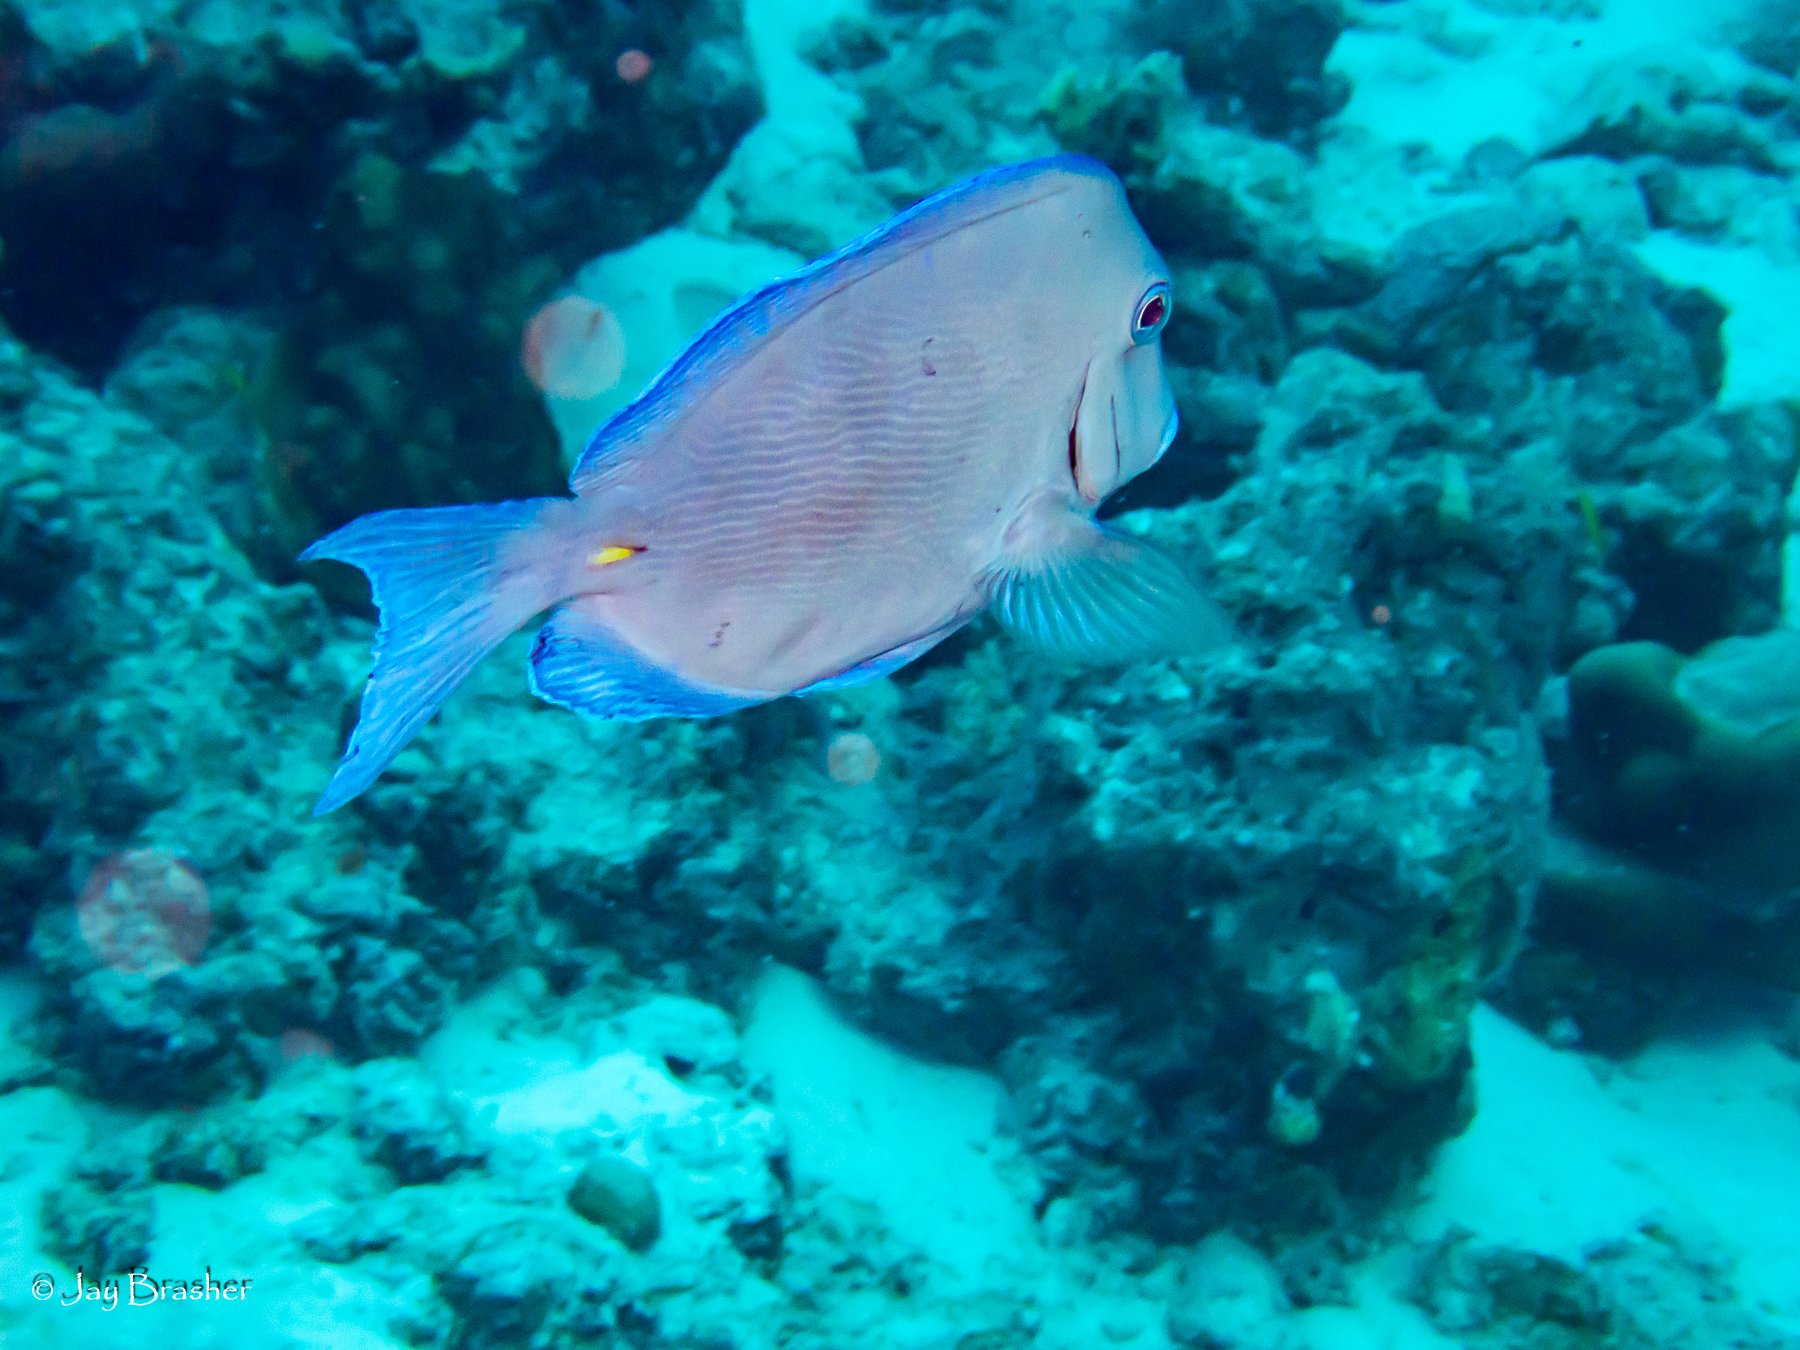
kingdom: Animalia
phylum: Chordata
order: Perciformes
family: Acanthuridae
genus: Acanthurus
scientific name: Acanthurus coeruleus
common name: Blue tang
